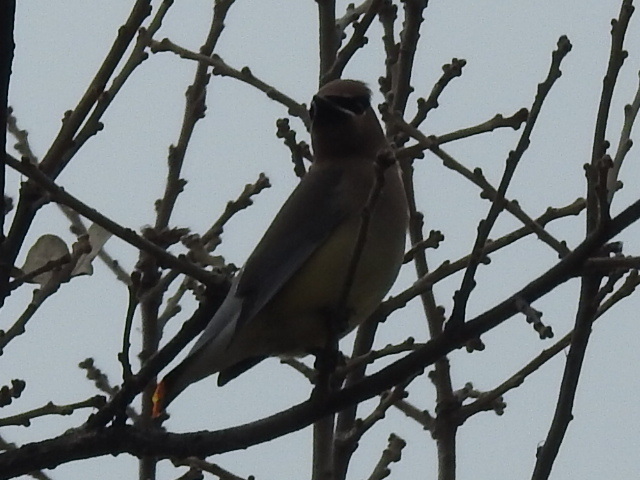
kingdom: Animalia
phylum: Chordata
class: Aves
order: Passeriformes
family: Bombycillidae
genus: Bombycilla
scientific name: Bombycilla cedrorum
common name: Cedar waxwing
